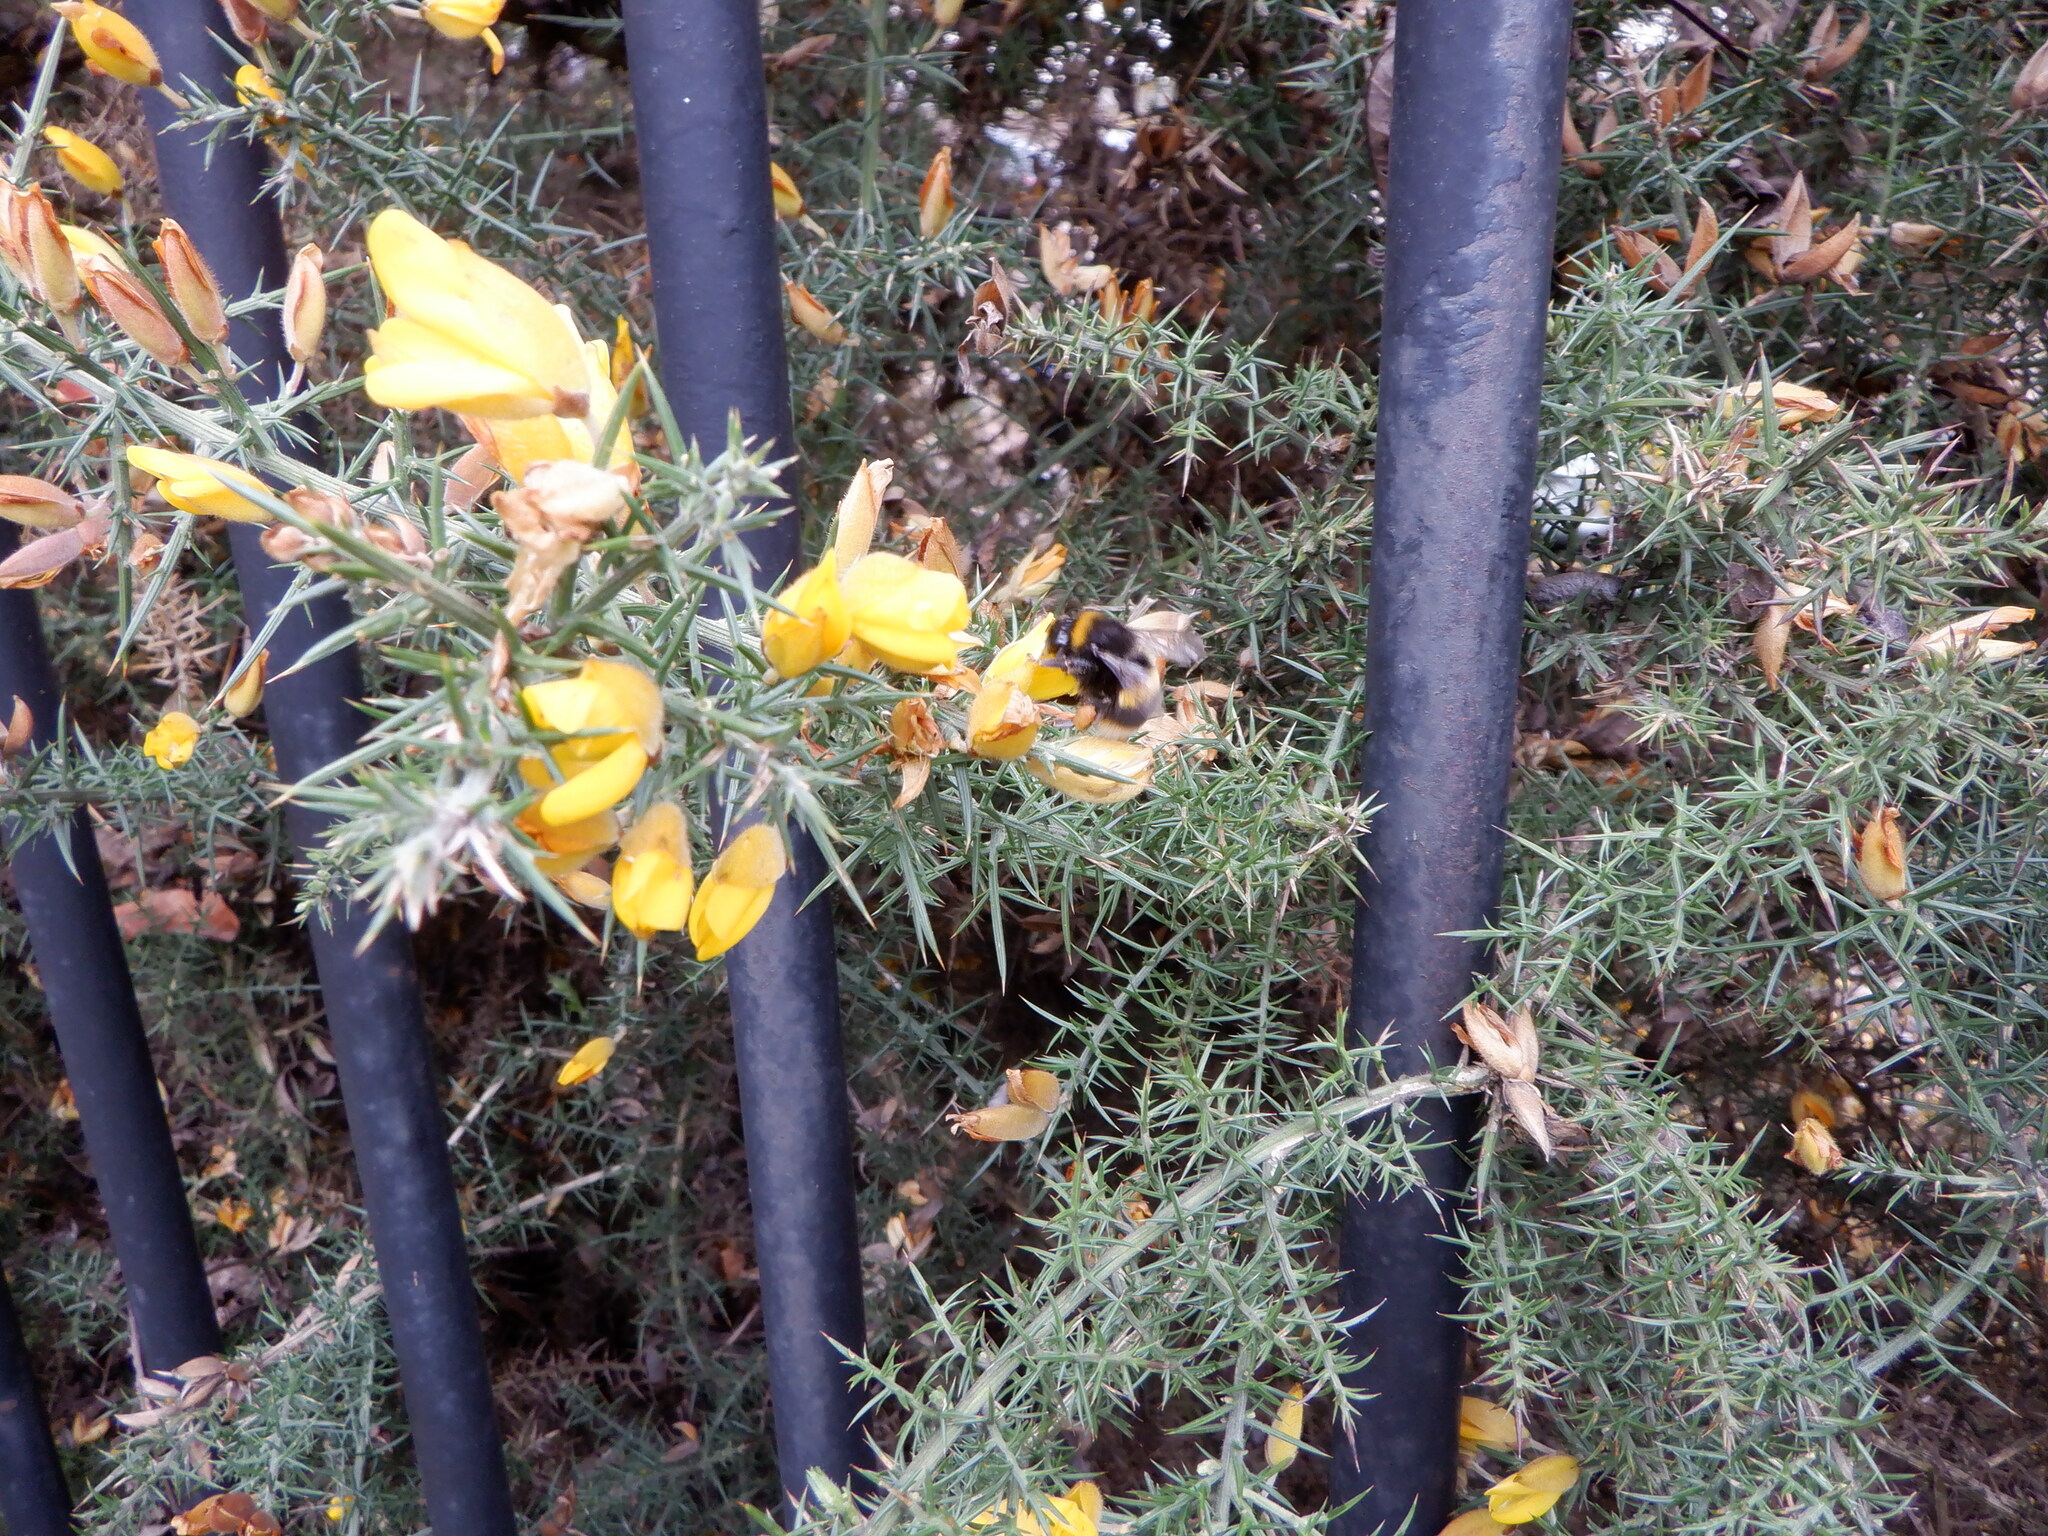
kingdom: Plantae
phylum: Tracheophyta
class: Magnoliopsida
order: Fabales
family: Fabaceae
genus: Ulex
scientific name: Ulex europaeus
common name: Common gorse
